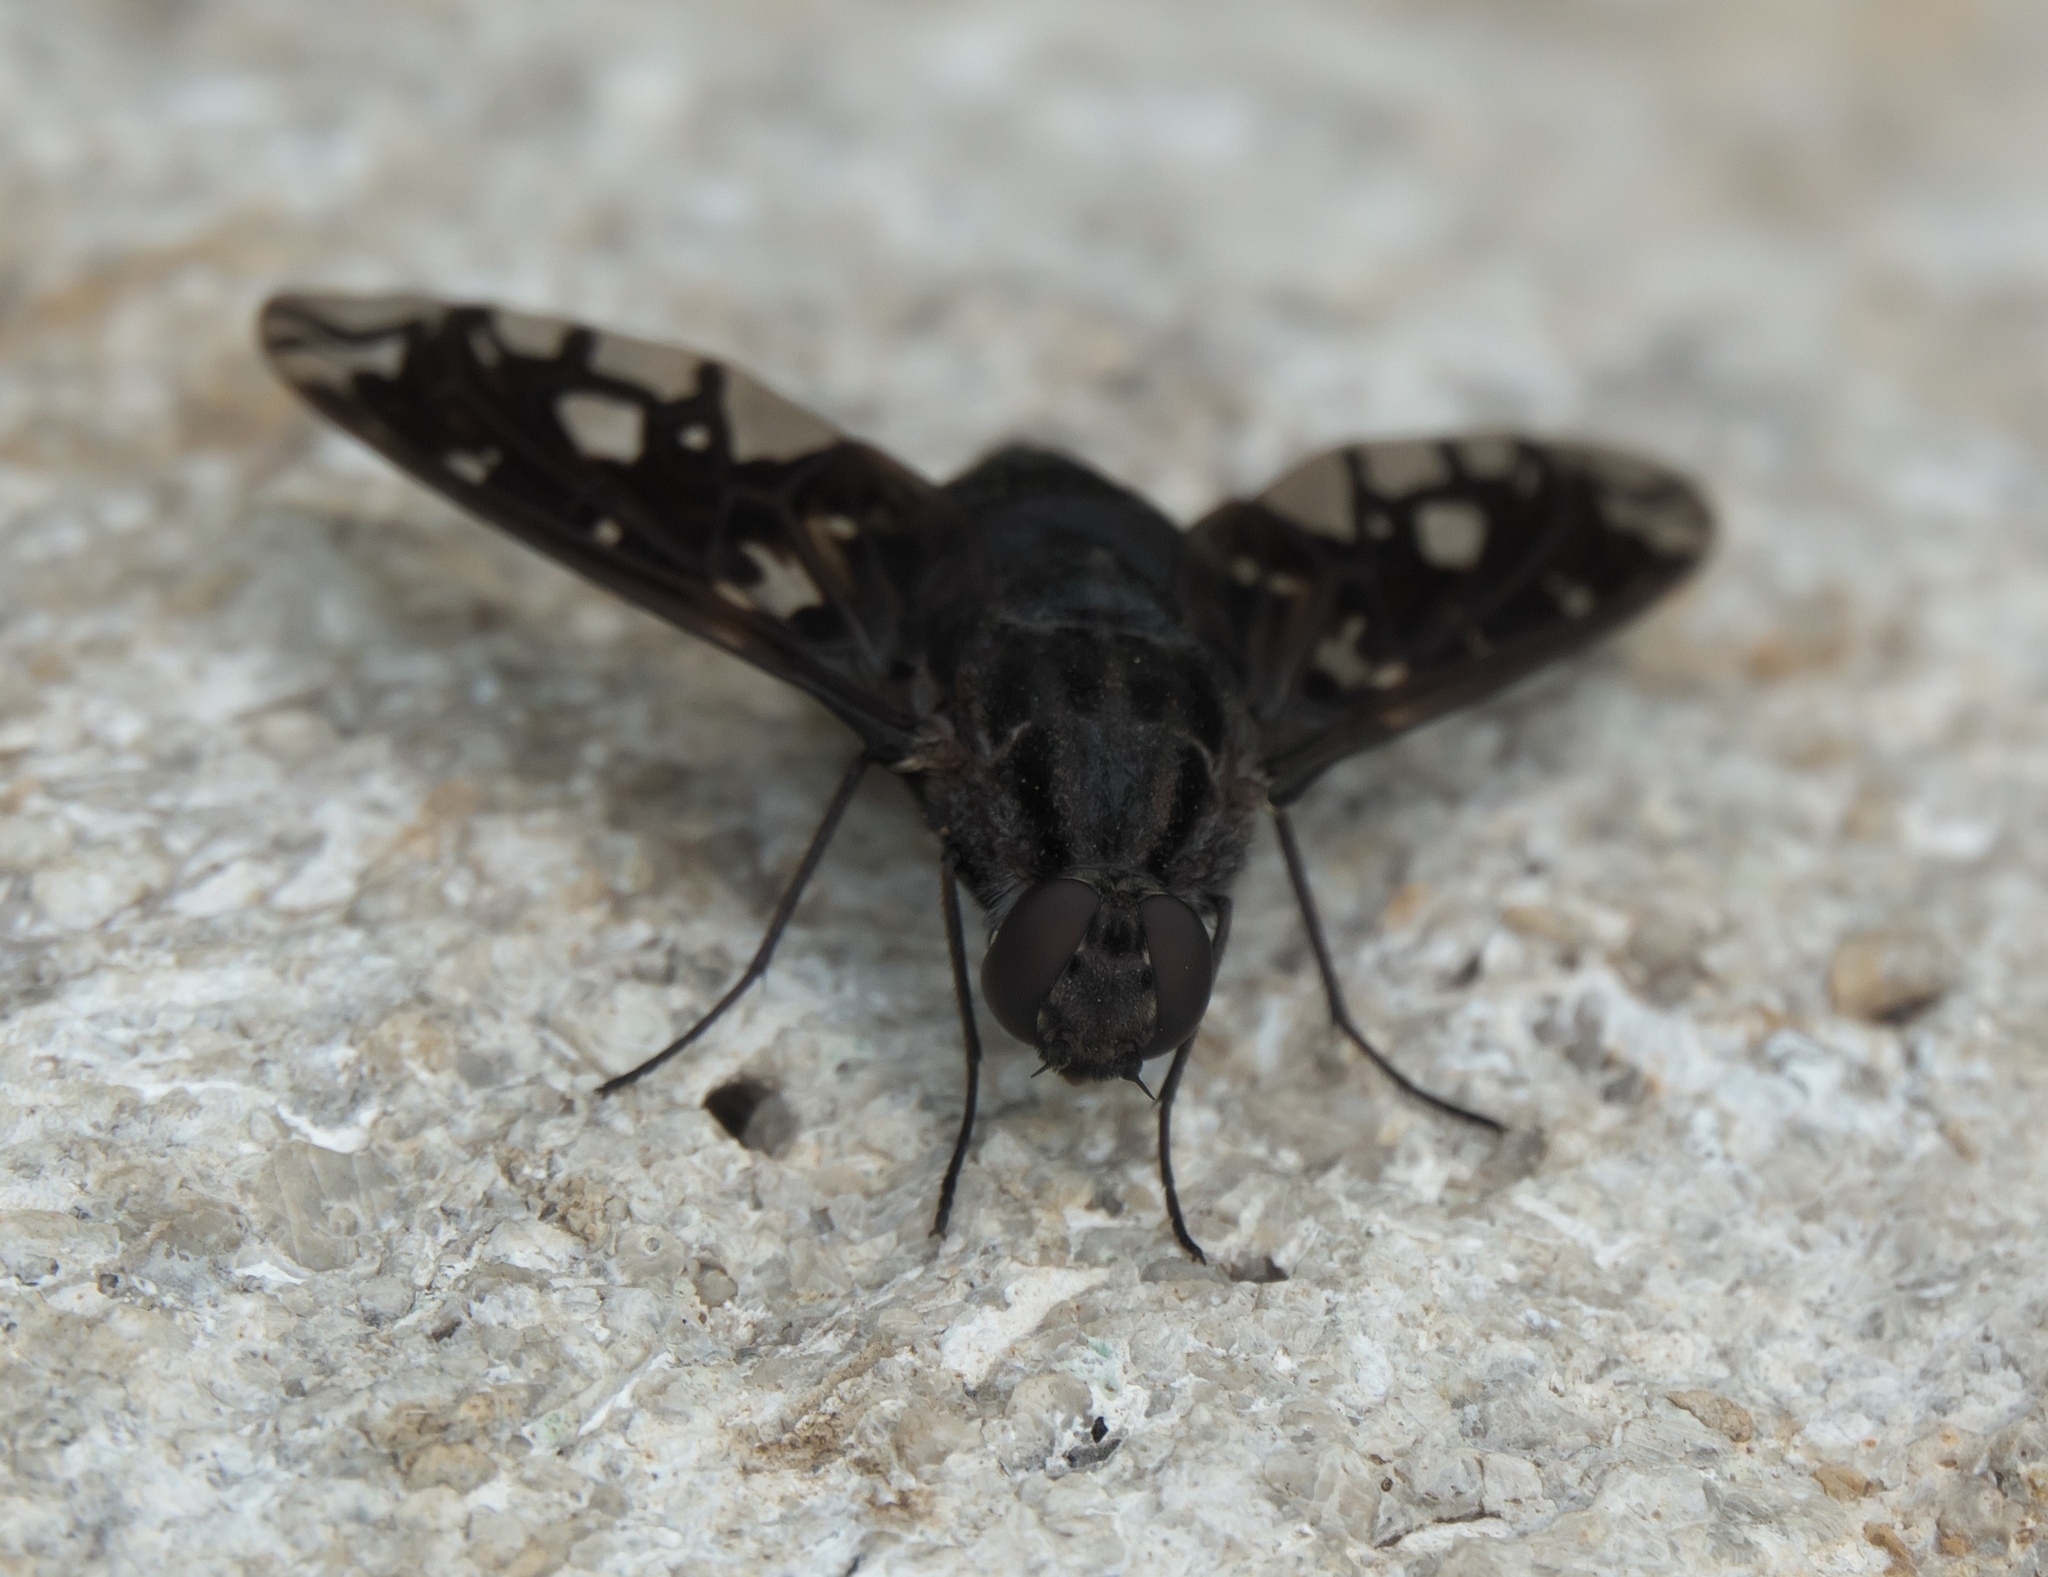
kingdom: Animalia
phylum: Arthropoda
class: Insecta
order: Diptera
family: Bombyliidae
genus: Xenox
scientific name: Xenox tigrinus
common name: Tiger bee fly
